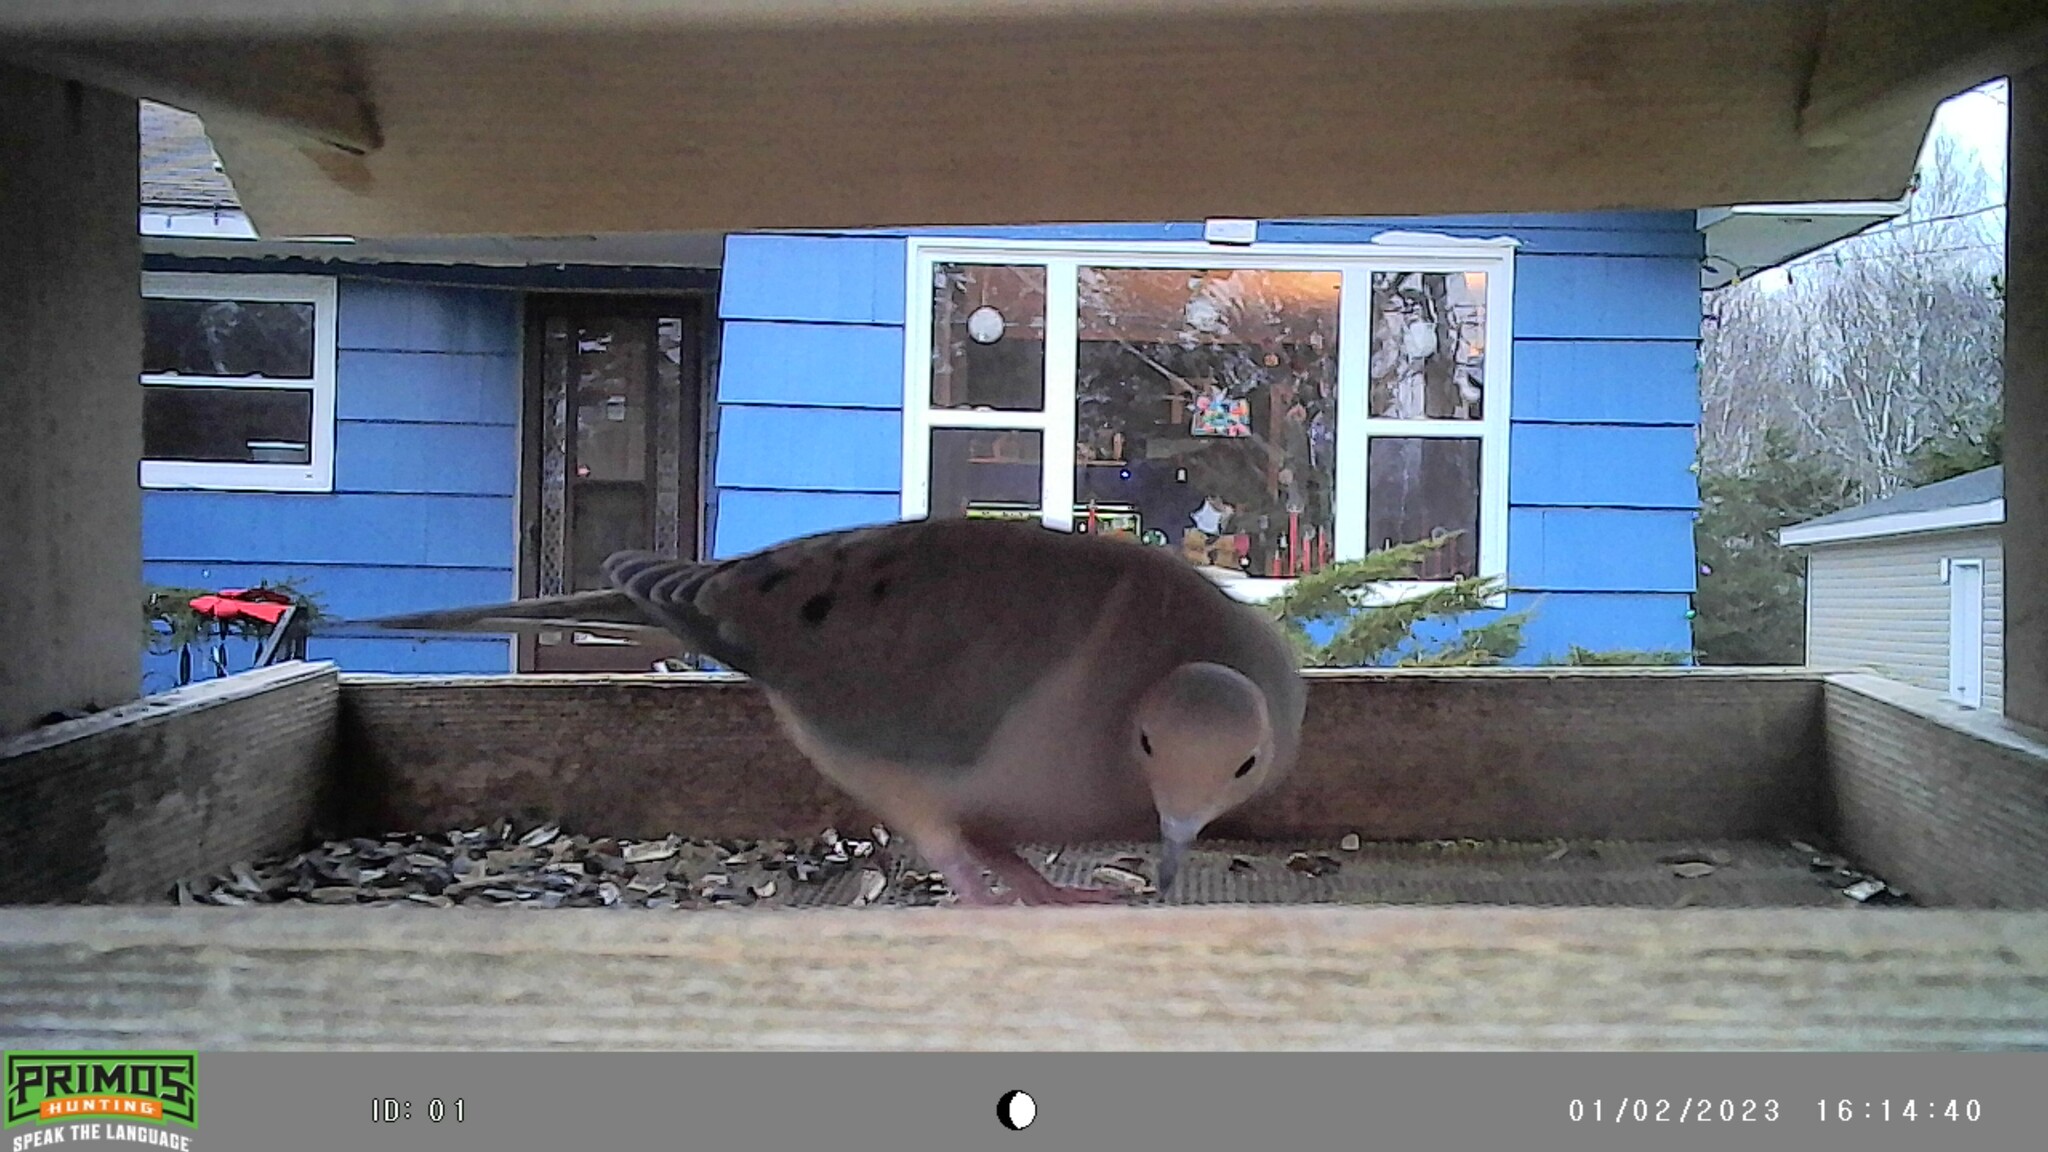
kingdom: Animalia
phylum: Chordata
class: Aves
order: Columbiformes
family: Columbidae
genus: Zenaida
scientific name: Zenaida macroura
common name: Mourning dove
